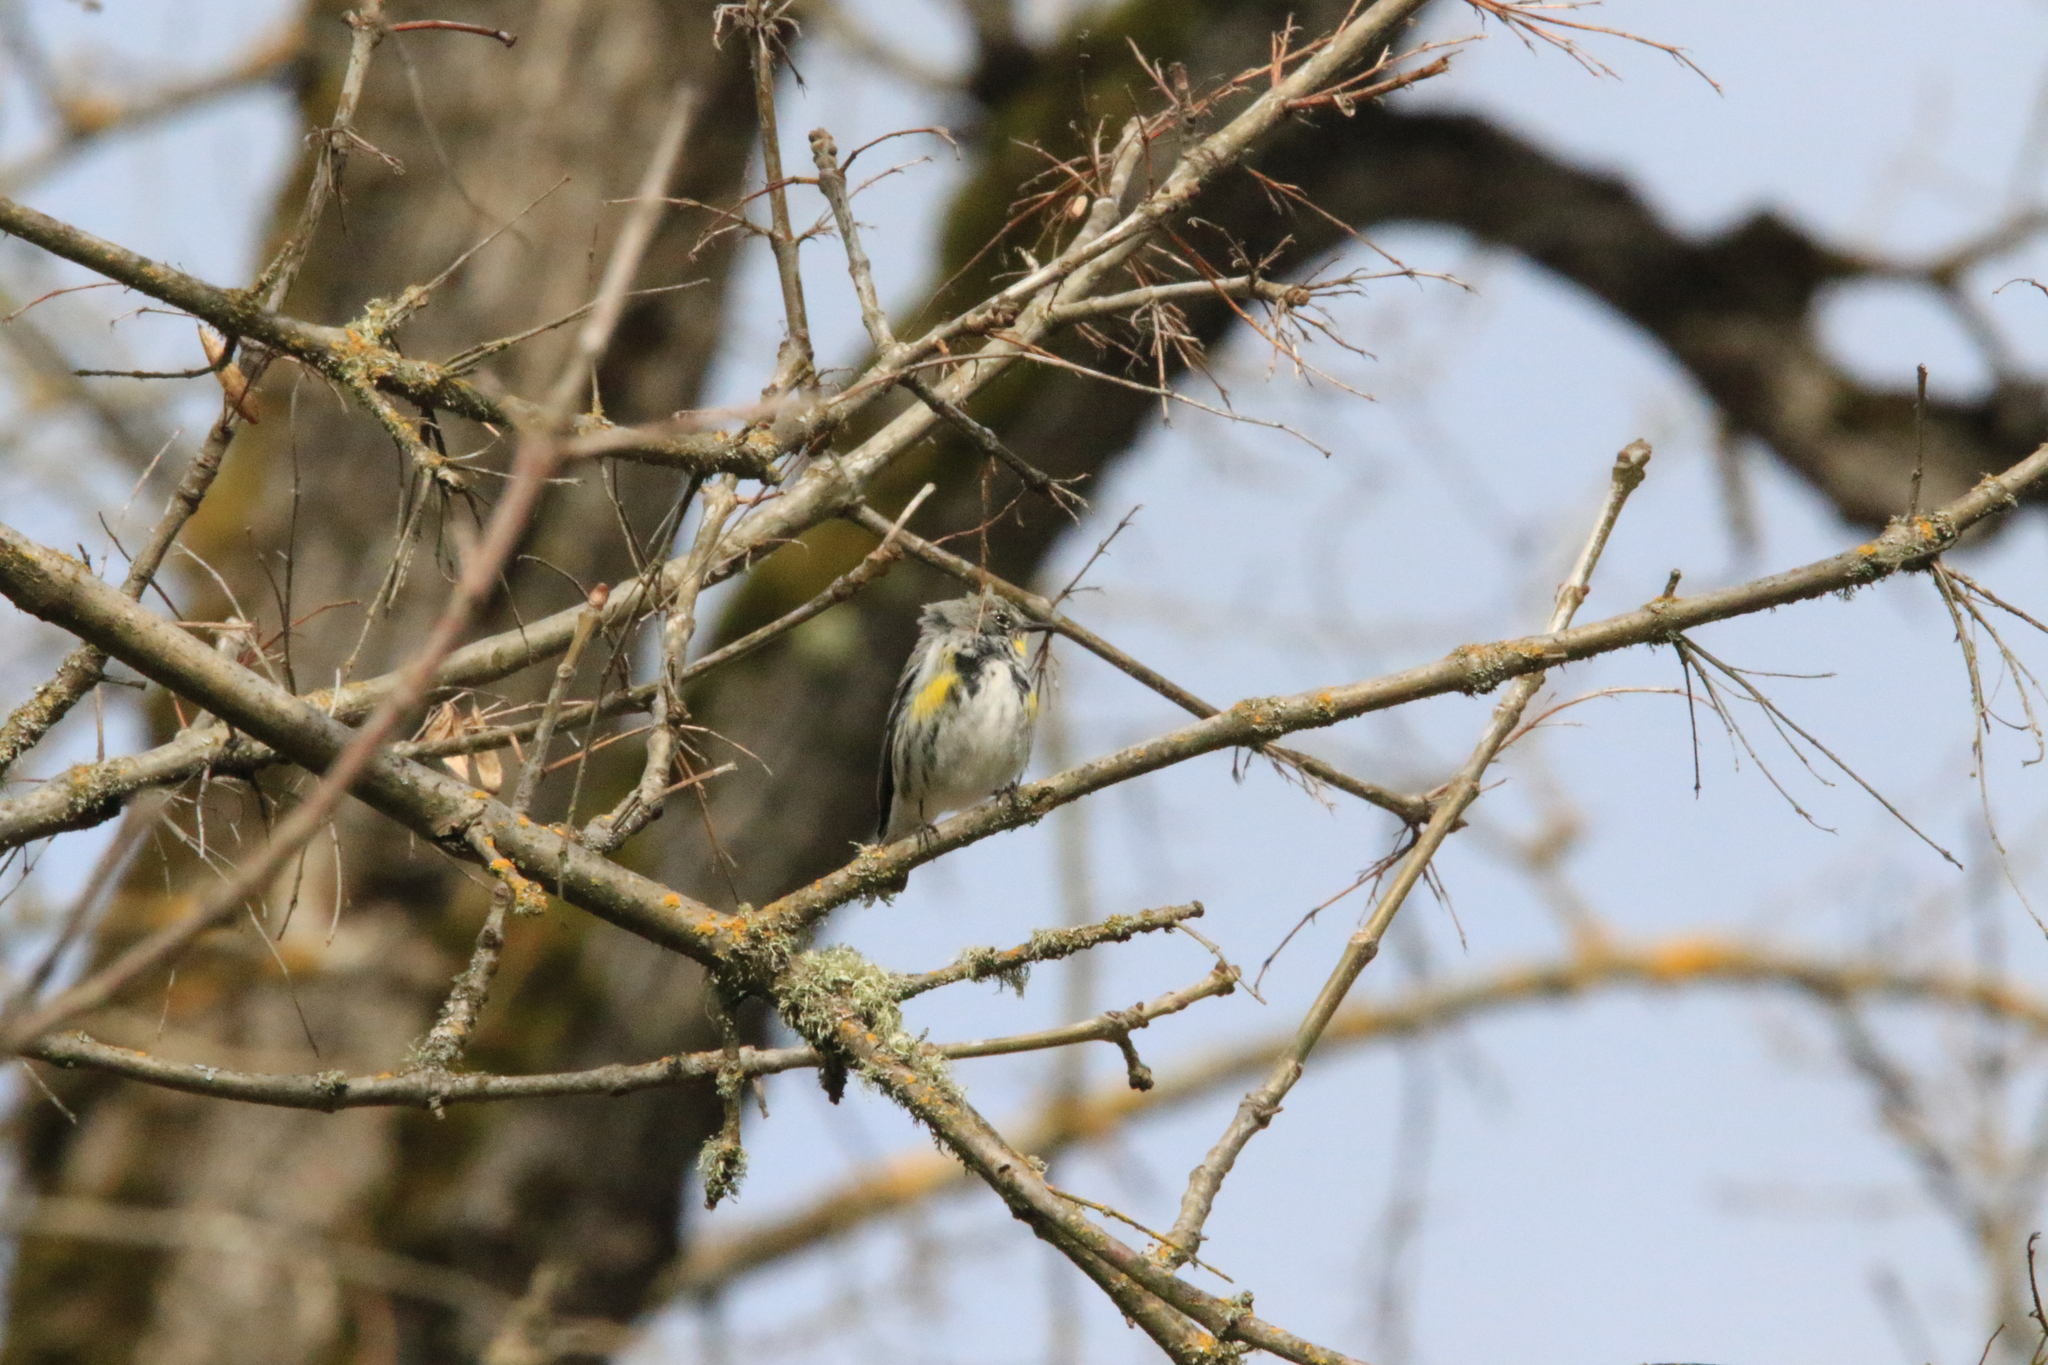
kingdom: Animalia
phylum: Chordata
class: Aves
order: Passeriformes
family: Parulidae
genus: Setophaga
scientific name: Setophaga coronata
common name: Myrtle warbler
